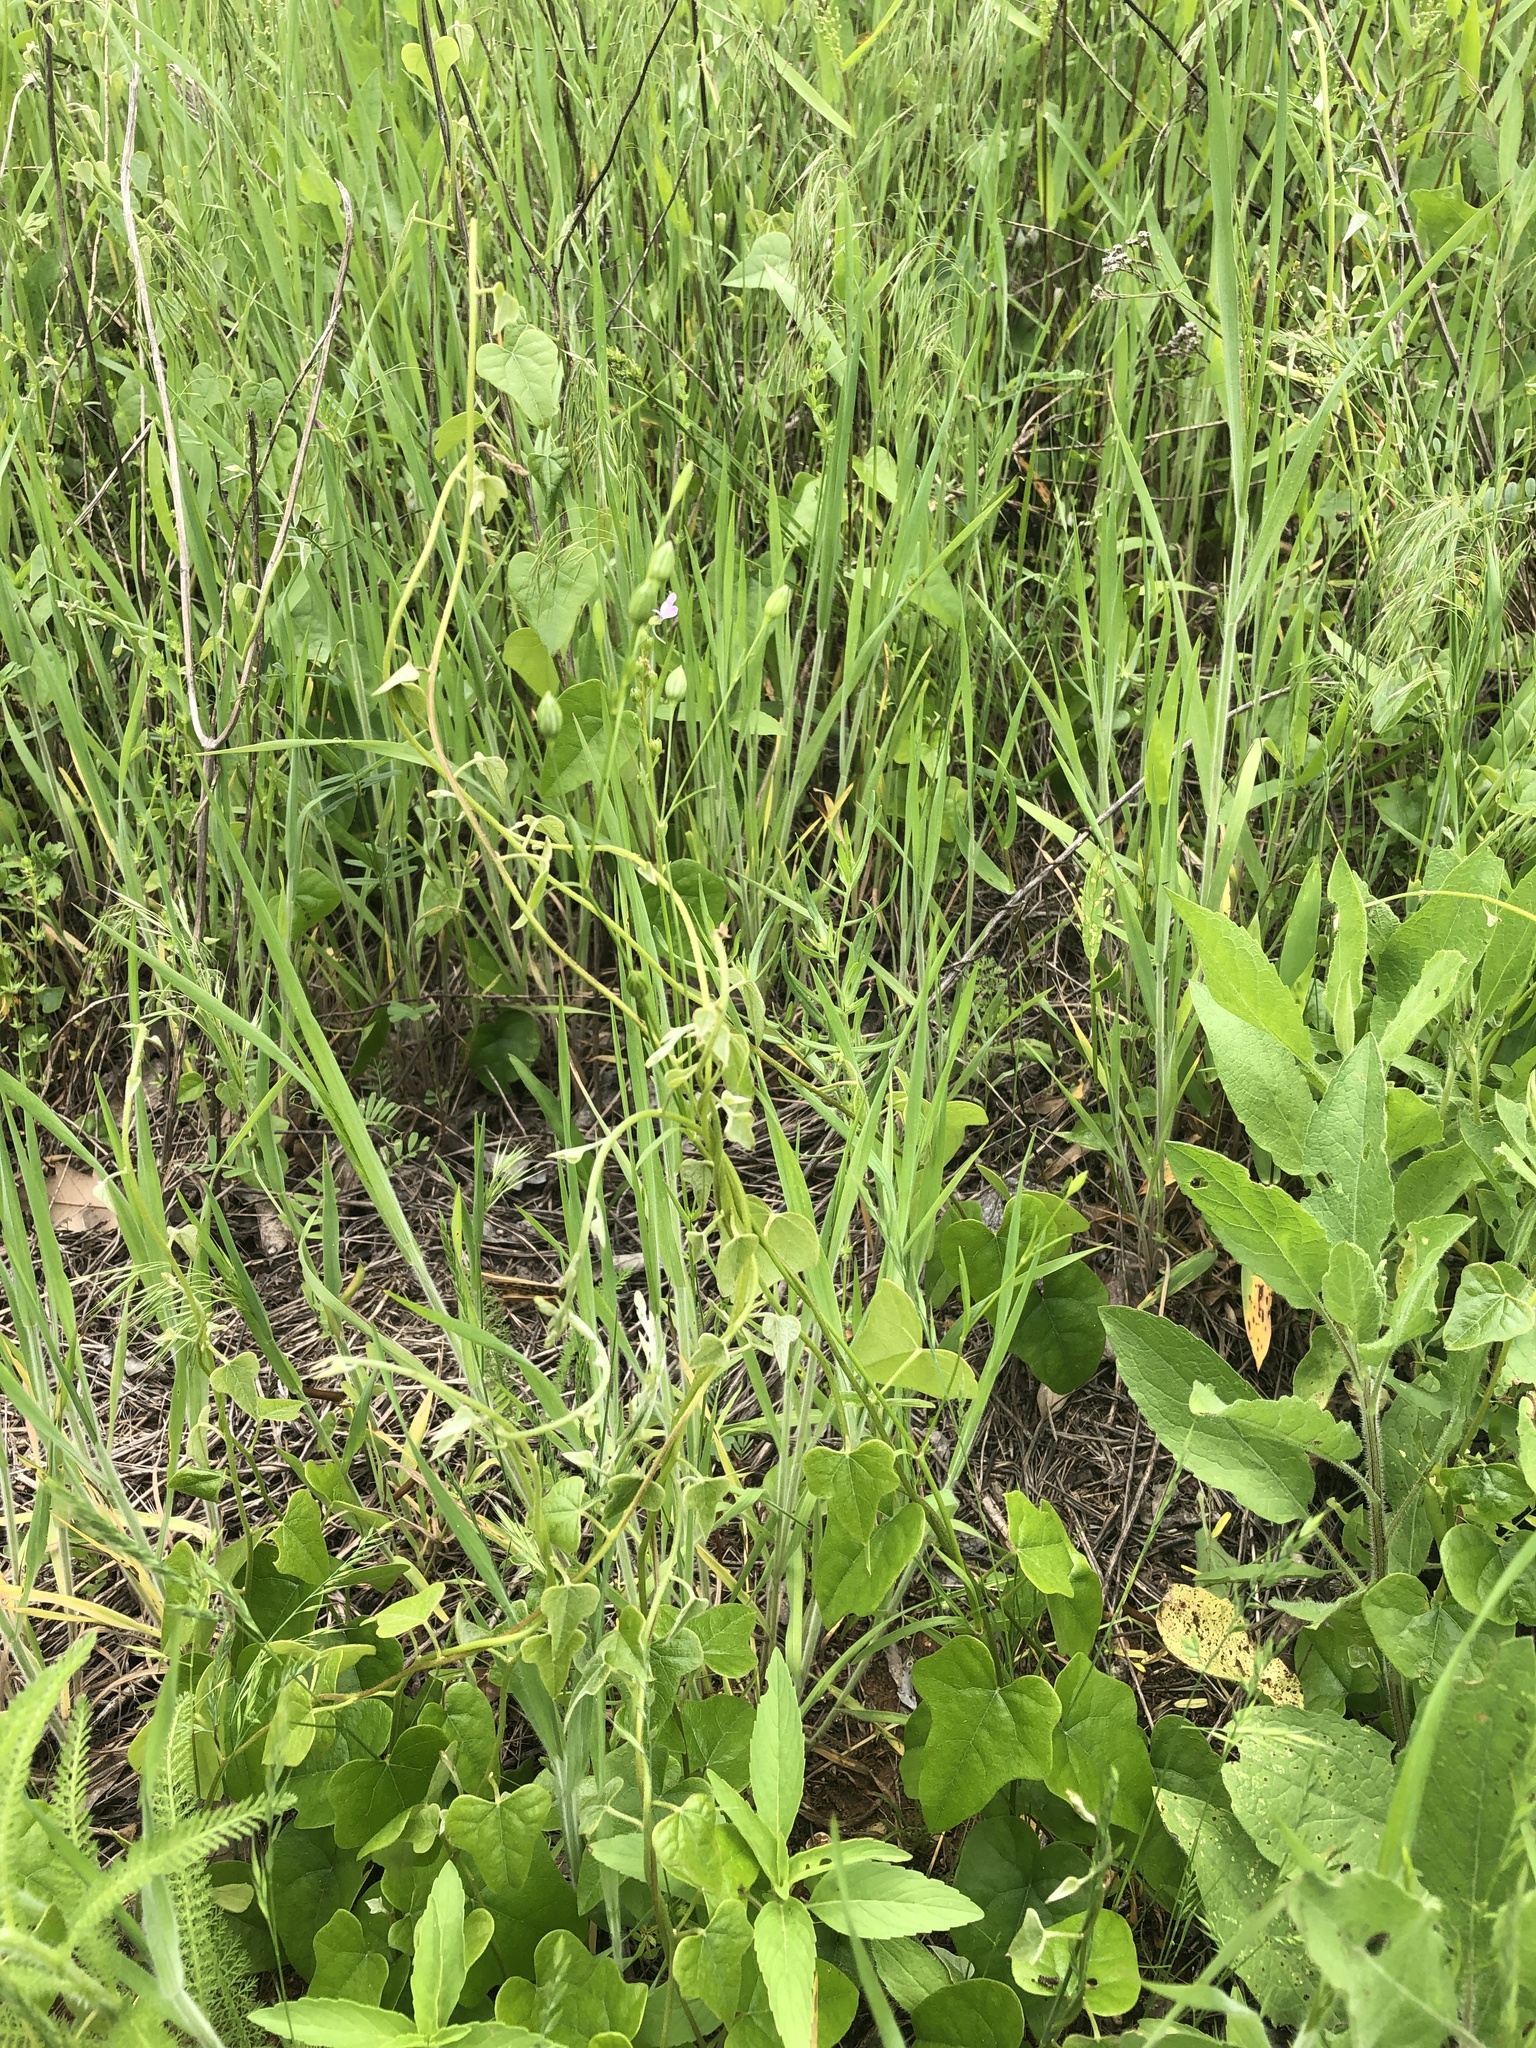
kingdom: Plantae
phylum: Tracheophyta
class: Magnoliopsida
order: Caryophyllales
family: Caryophyllaceae
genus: Silene
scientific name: Silene antirrhina
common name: Sleepy catchfly
